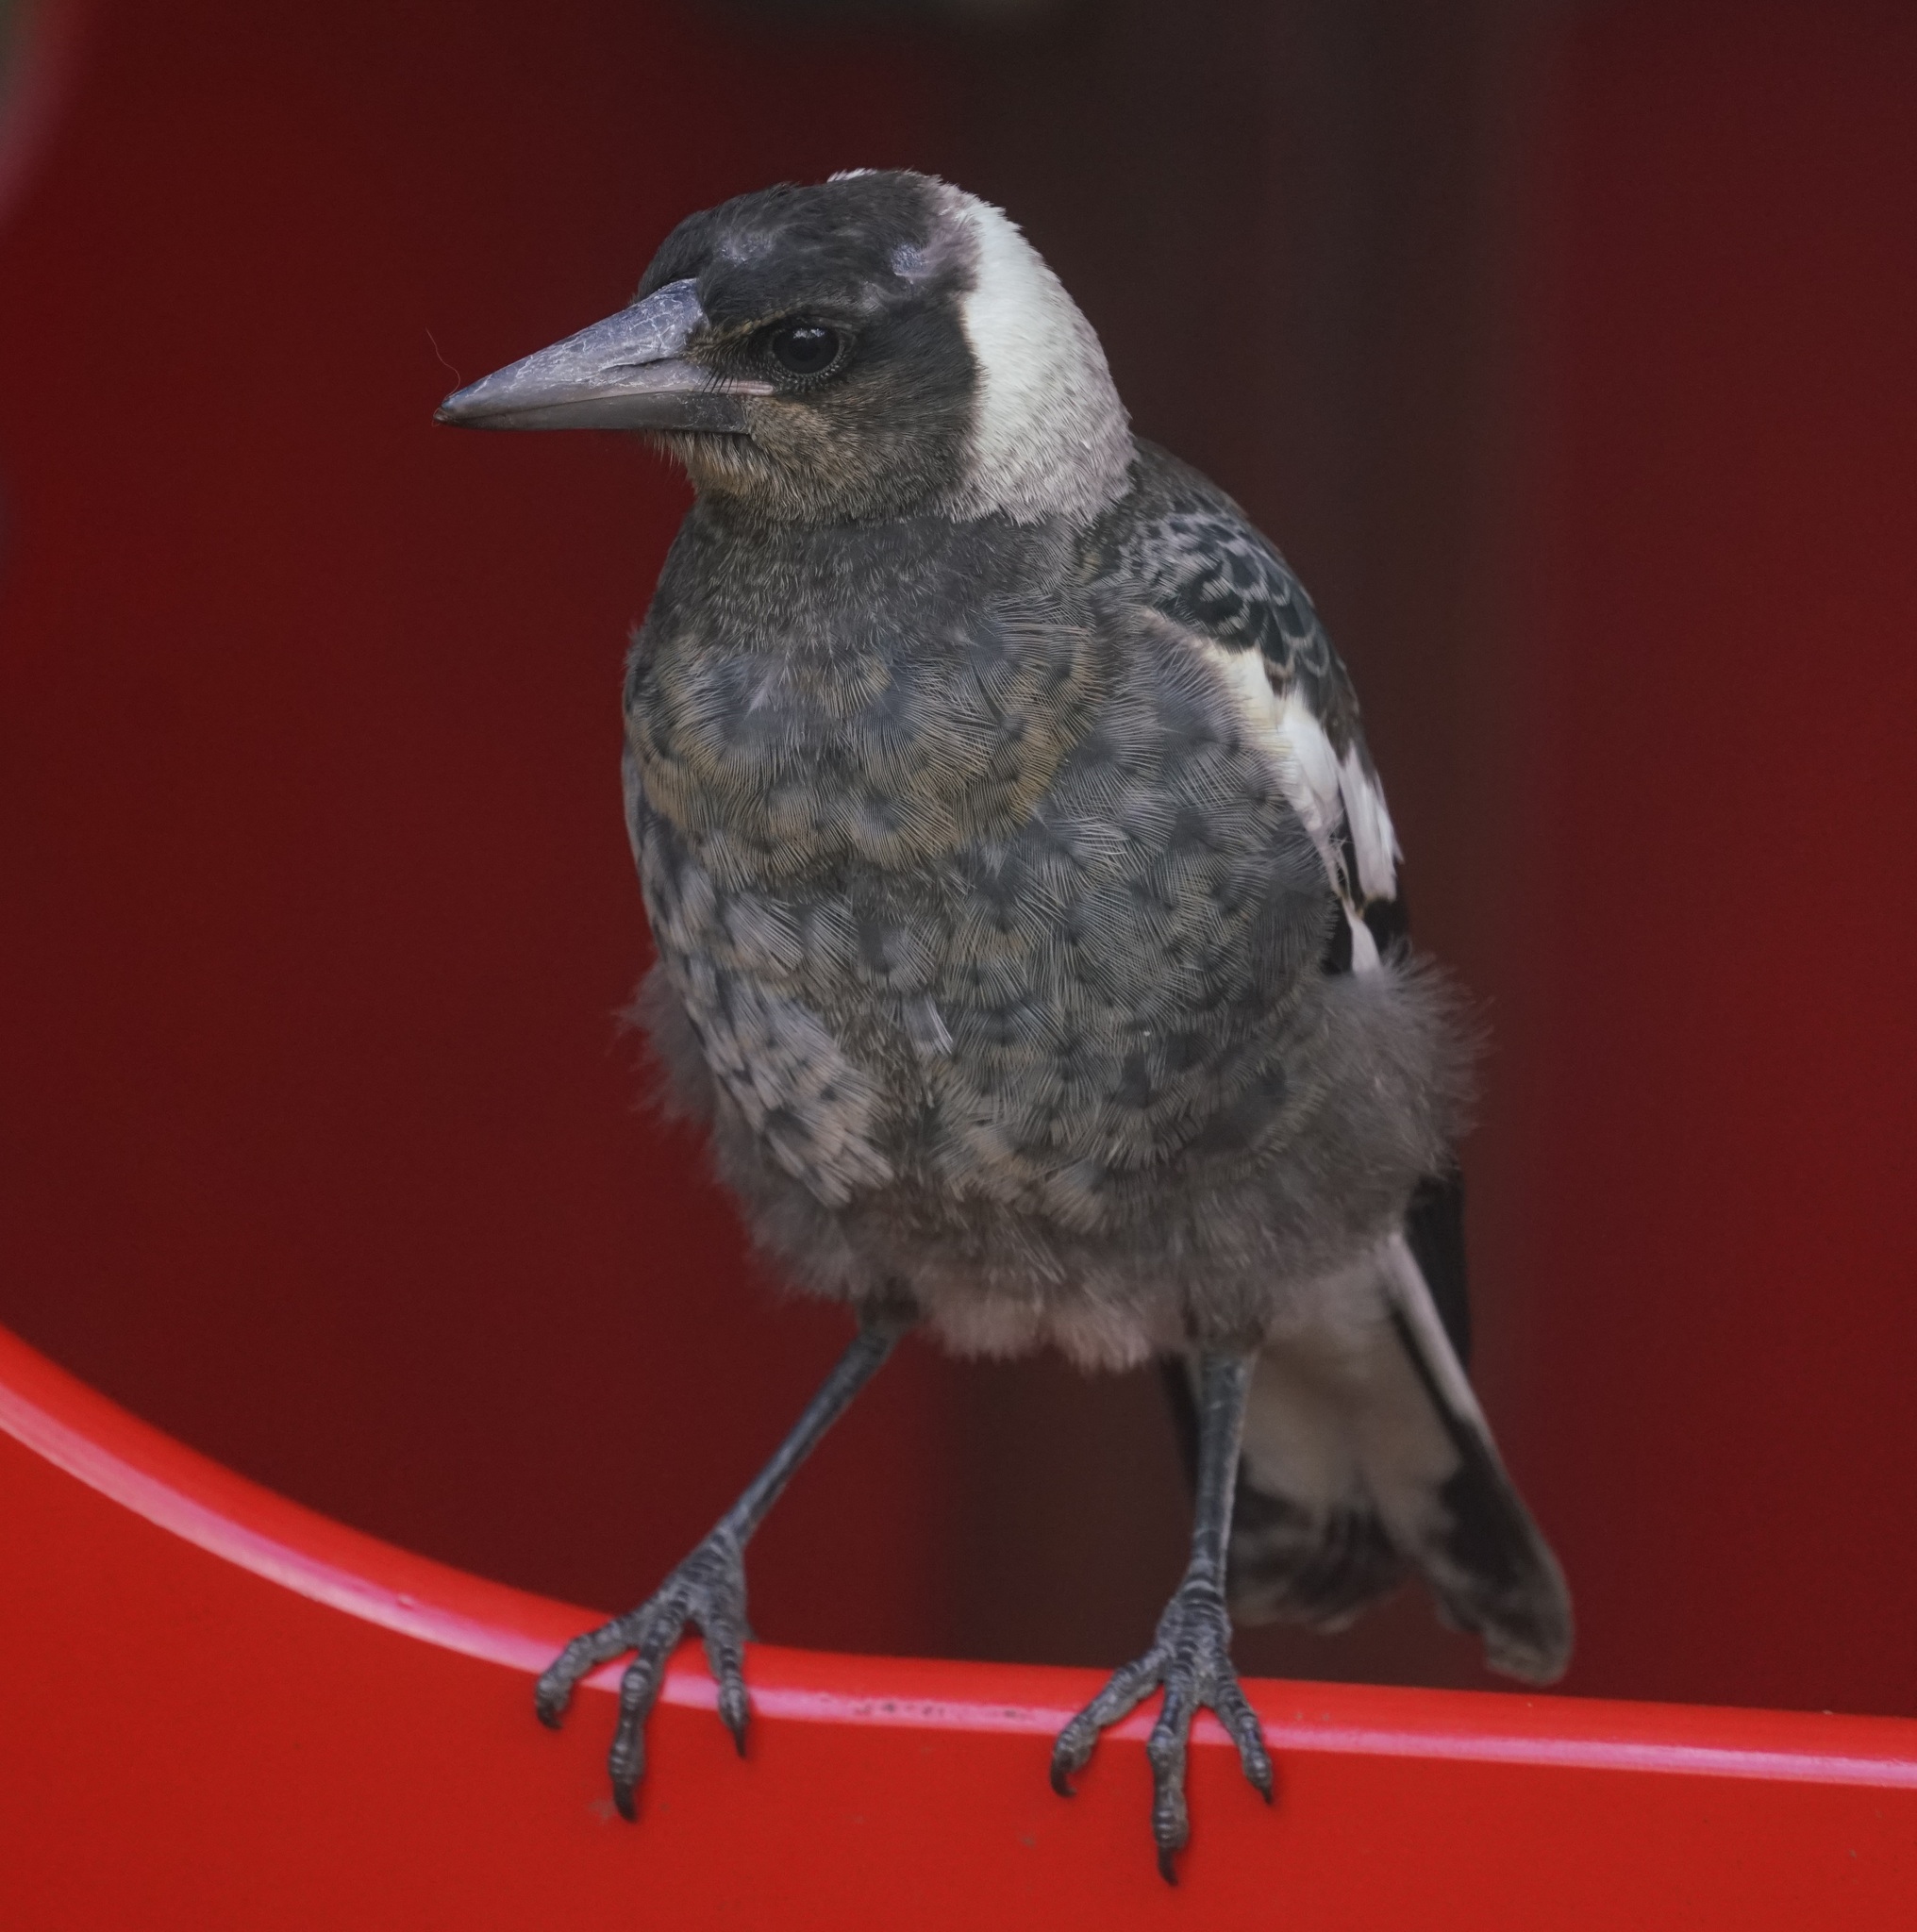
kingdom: Animalia
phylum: Chordata
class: Aves
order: Passeriformes
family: Cracticidae
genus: Gymnorhina
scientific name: Gymnorhina tibicen
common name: Australian magpie
